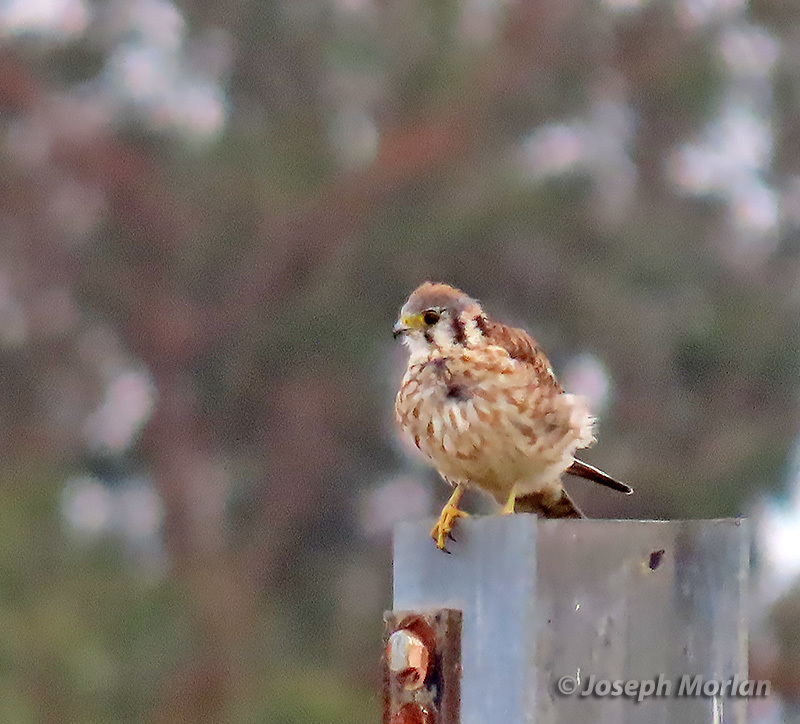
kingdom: Animalia
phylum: Chordata
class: Aves
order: Falconiformes
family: Falconidae
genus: Falco
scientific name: Falco sparverius
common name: American kestrel
